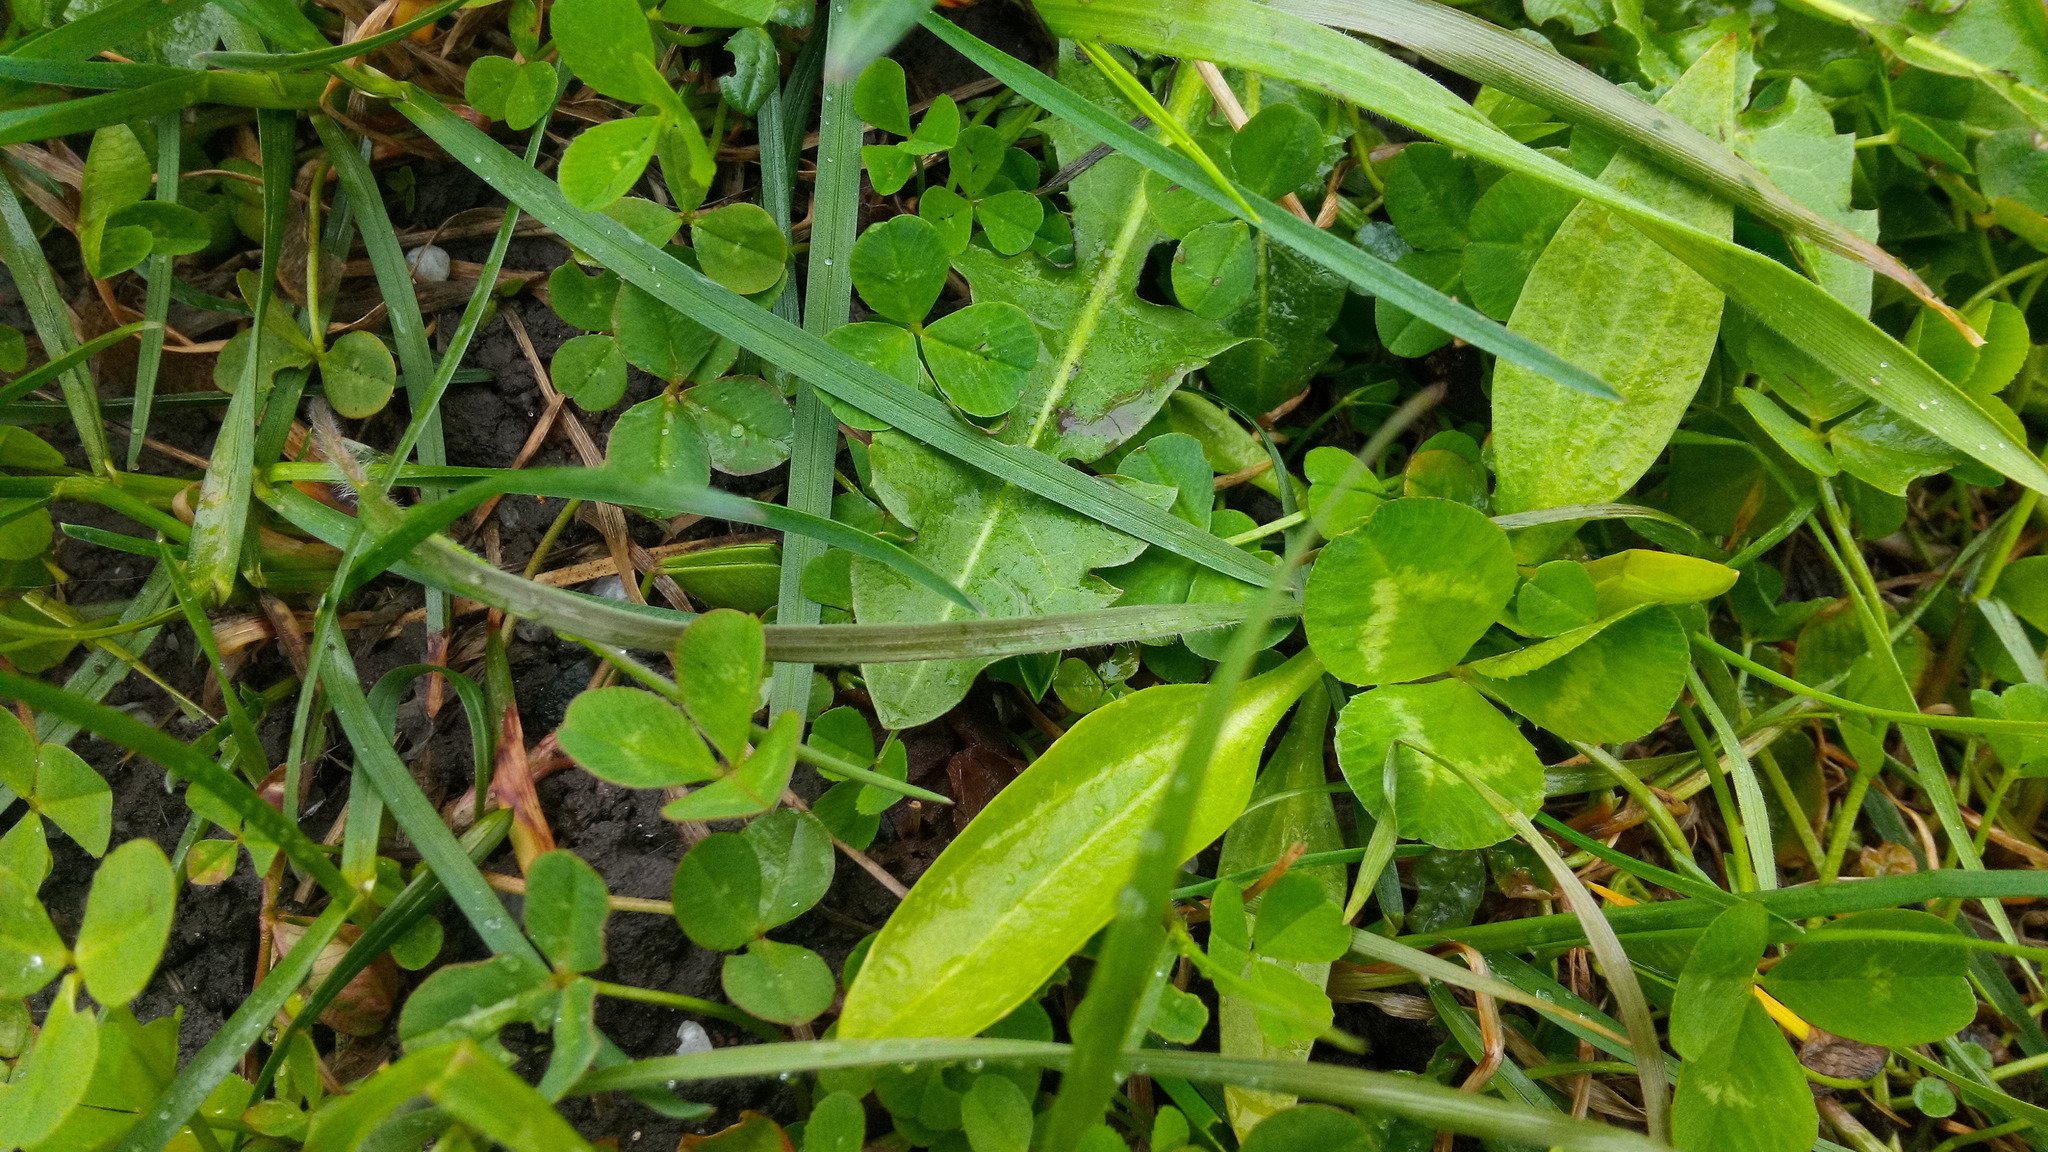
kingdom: Plantae
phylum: Tracheophyta
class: Magnoliopsida
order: Lamiales
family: Plantaginaceae
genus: Plantago
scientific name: Plantago lanceolata
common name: Ribwort plantain
